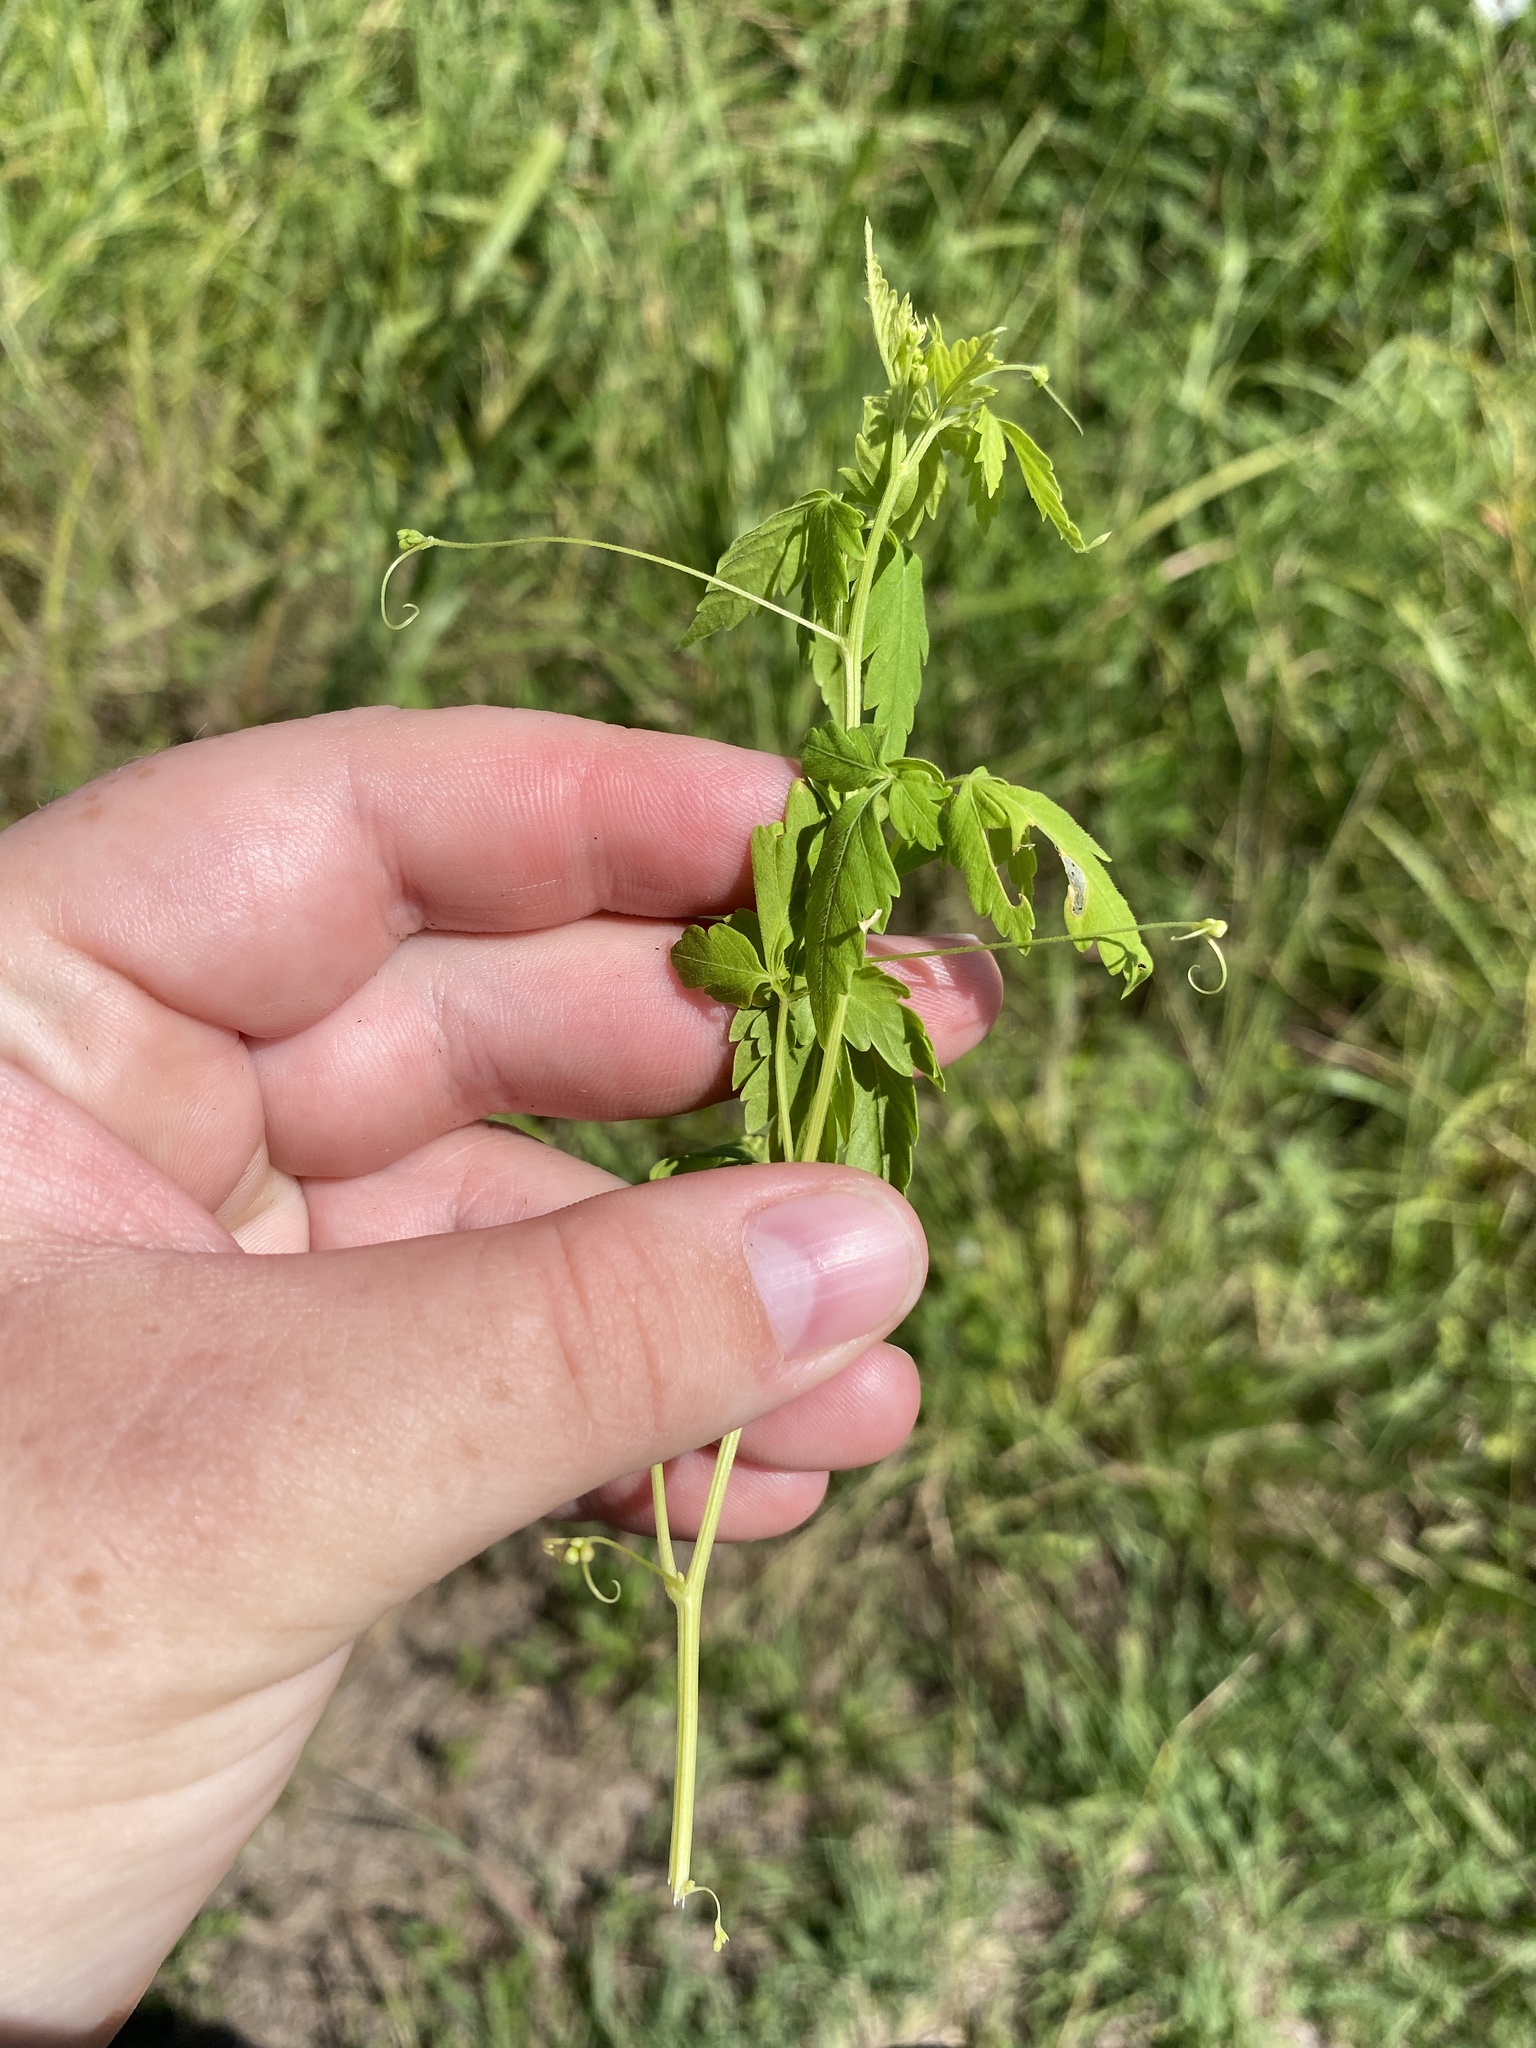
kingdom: Plantae
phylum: Tracheophyta
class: Magnoliopsida
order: Sapindales
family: Sapindaceae
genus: Cardiospermum
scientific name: Cardiospermum halicacabum
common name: Balloon vine
